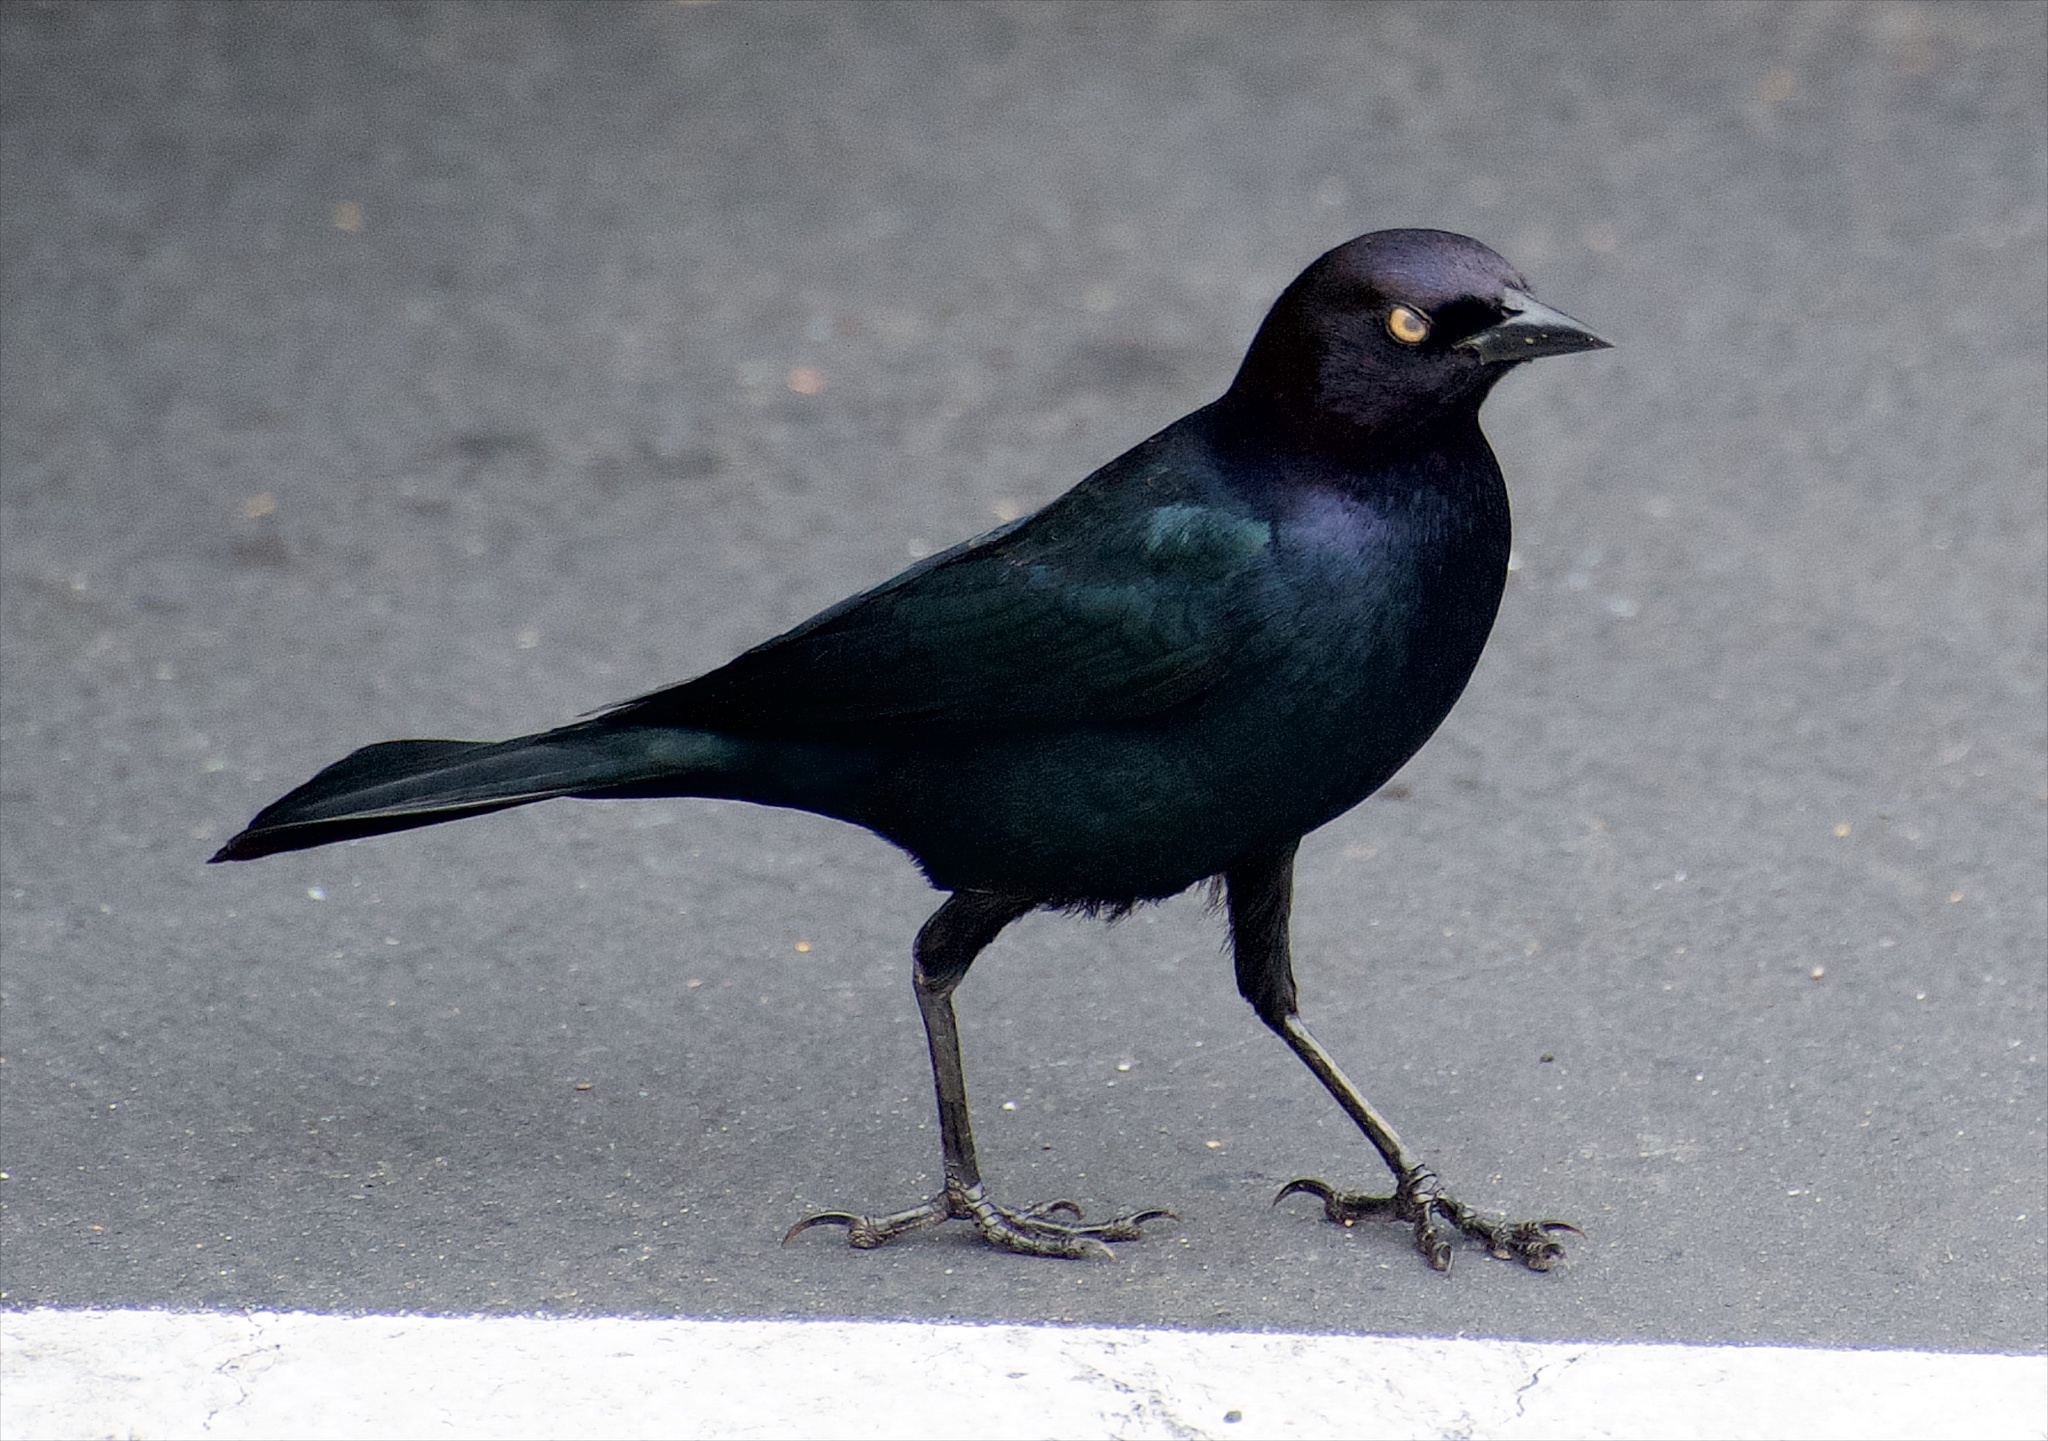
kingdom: Animalia
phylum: Chordata
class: Aves
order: Passeriformes
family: Icteridae
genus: Euphagus
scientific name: Euphagus cyanocephalus
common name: Brewer's blackbird
